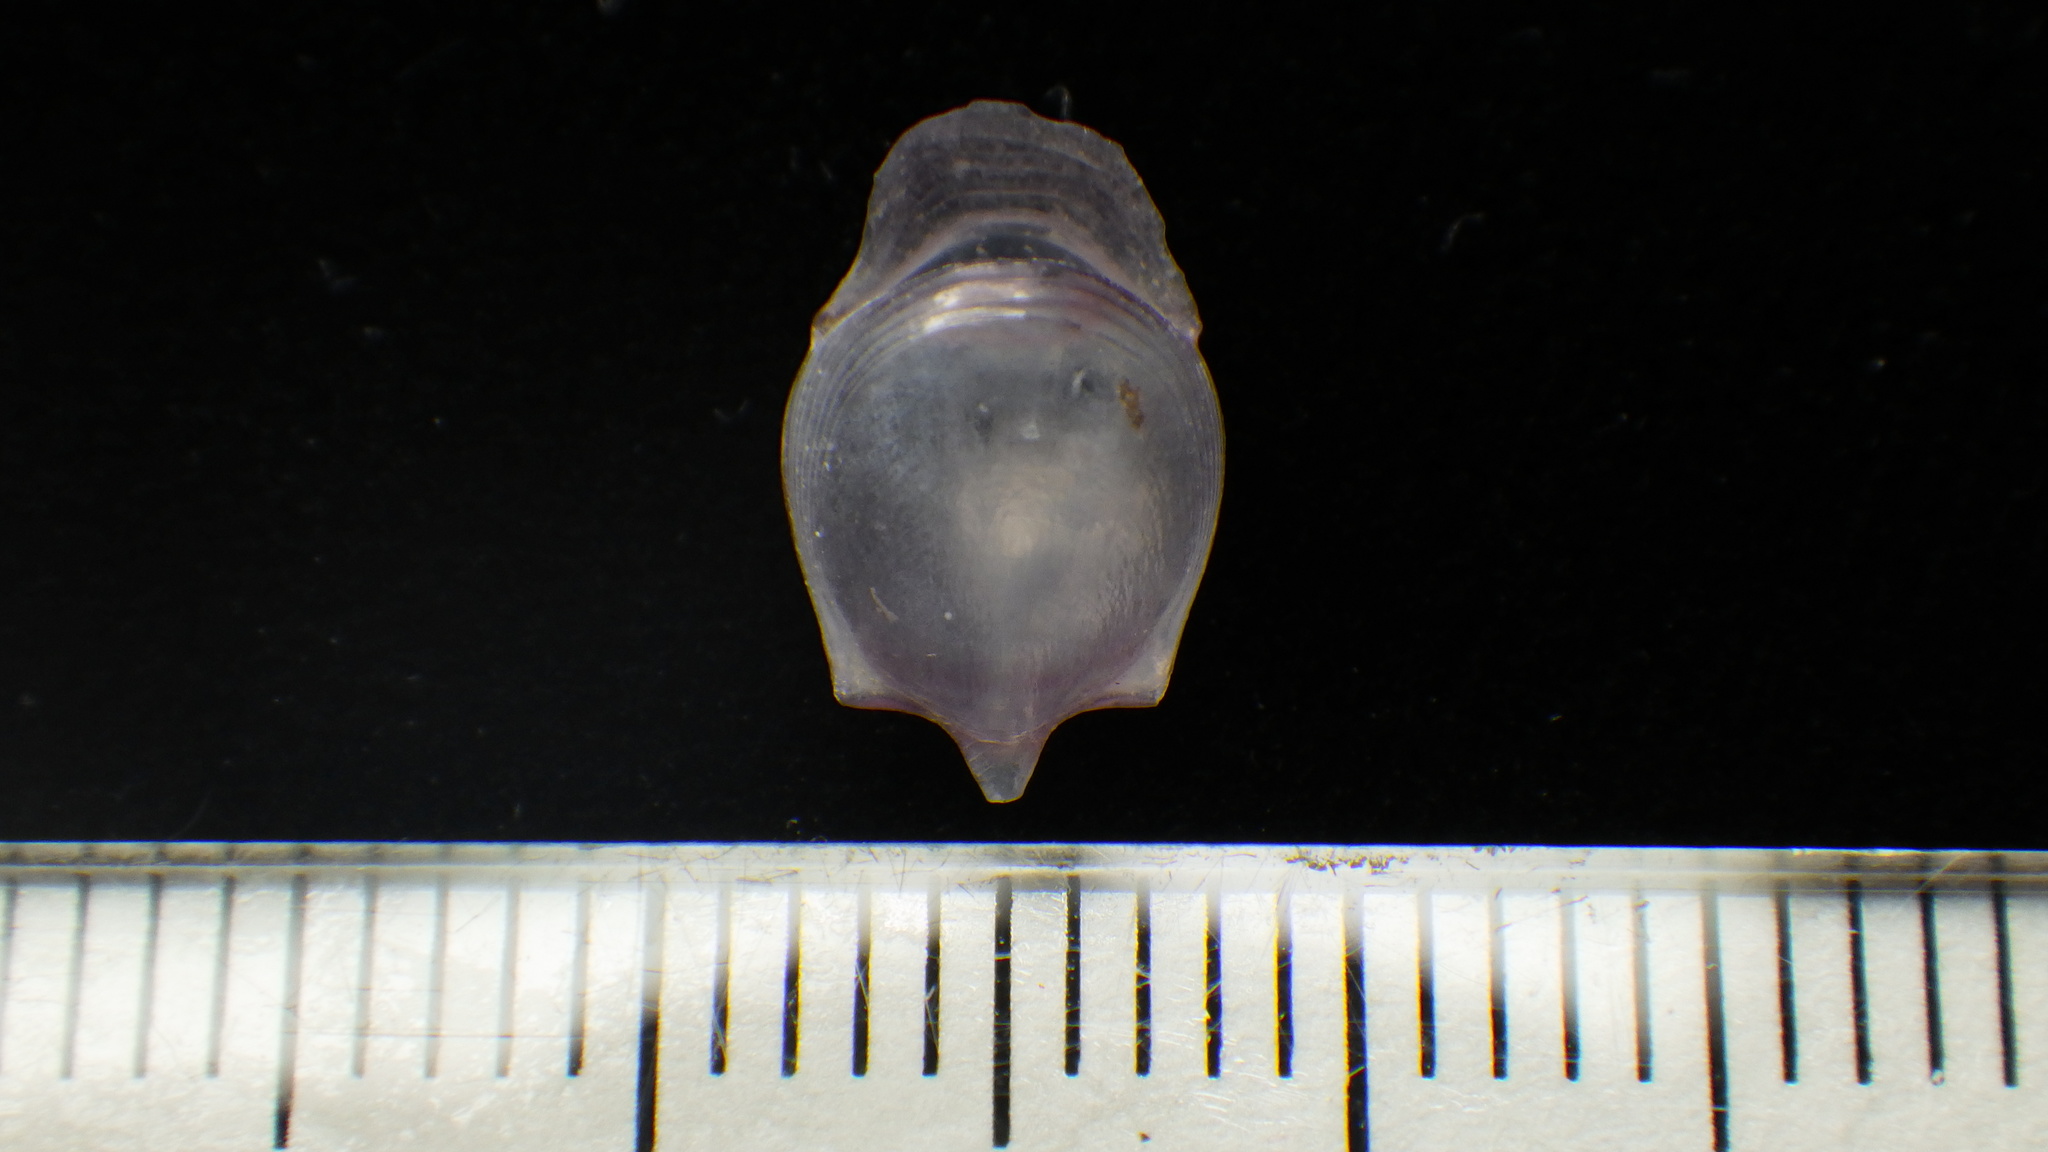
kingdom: Animalia
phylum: Mollusca
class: Gastropoda
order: Pteropoda
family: Cavoliniidae
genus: Cavolinia
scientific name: Cavolinia gibbosa
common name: Gibbose cavoline
